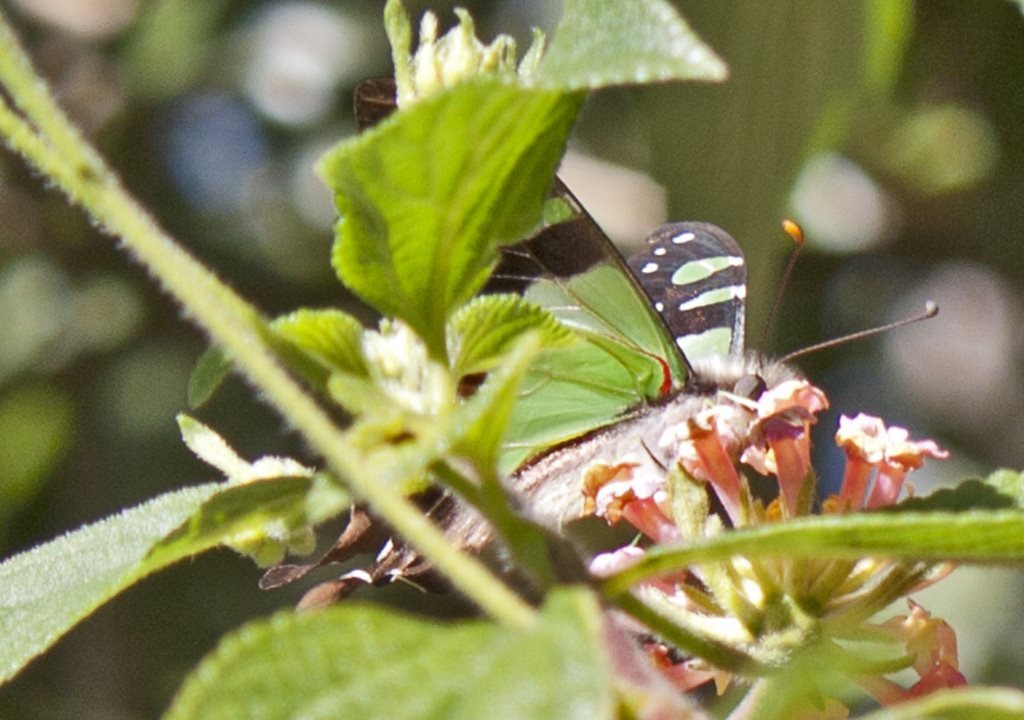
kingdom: Animalia
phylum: Arthropoda
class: Insecta
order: Lepidoptera
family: Papilionidae
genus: Graphium
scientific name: Graphium macleayanus
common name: Macleay's swallowtail
